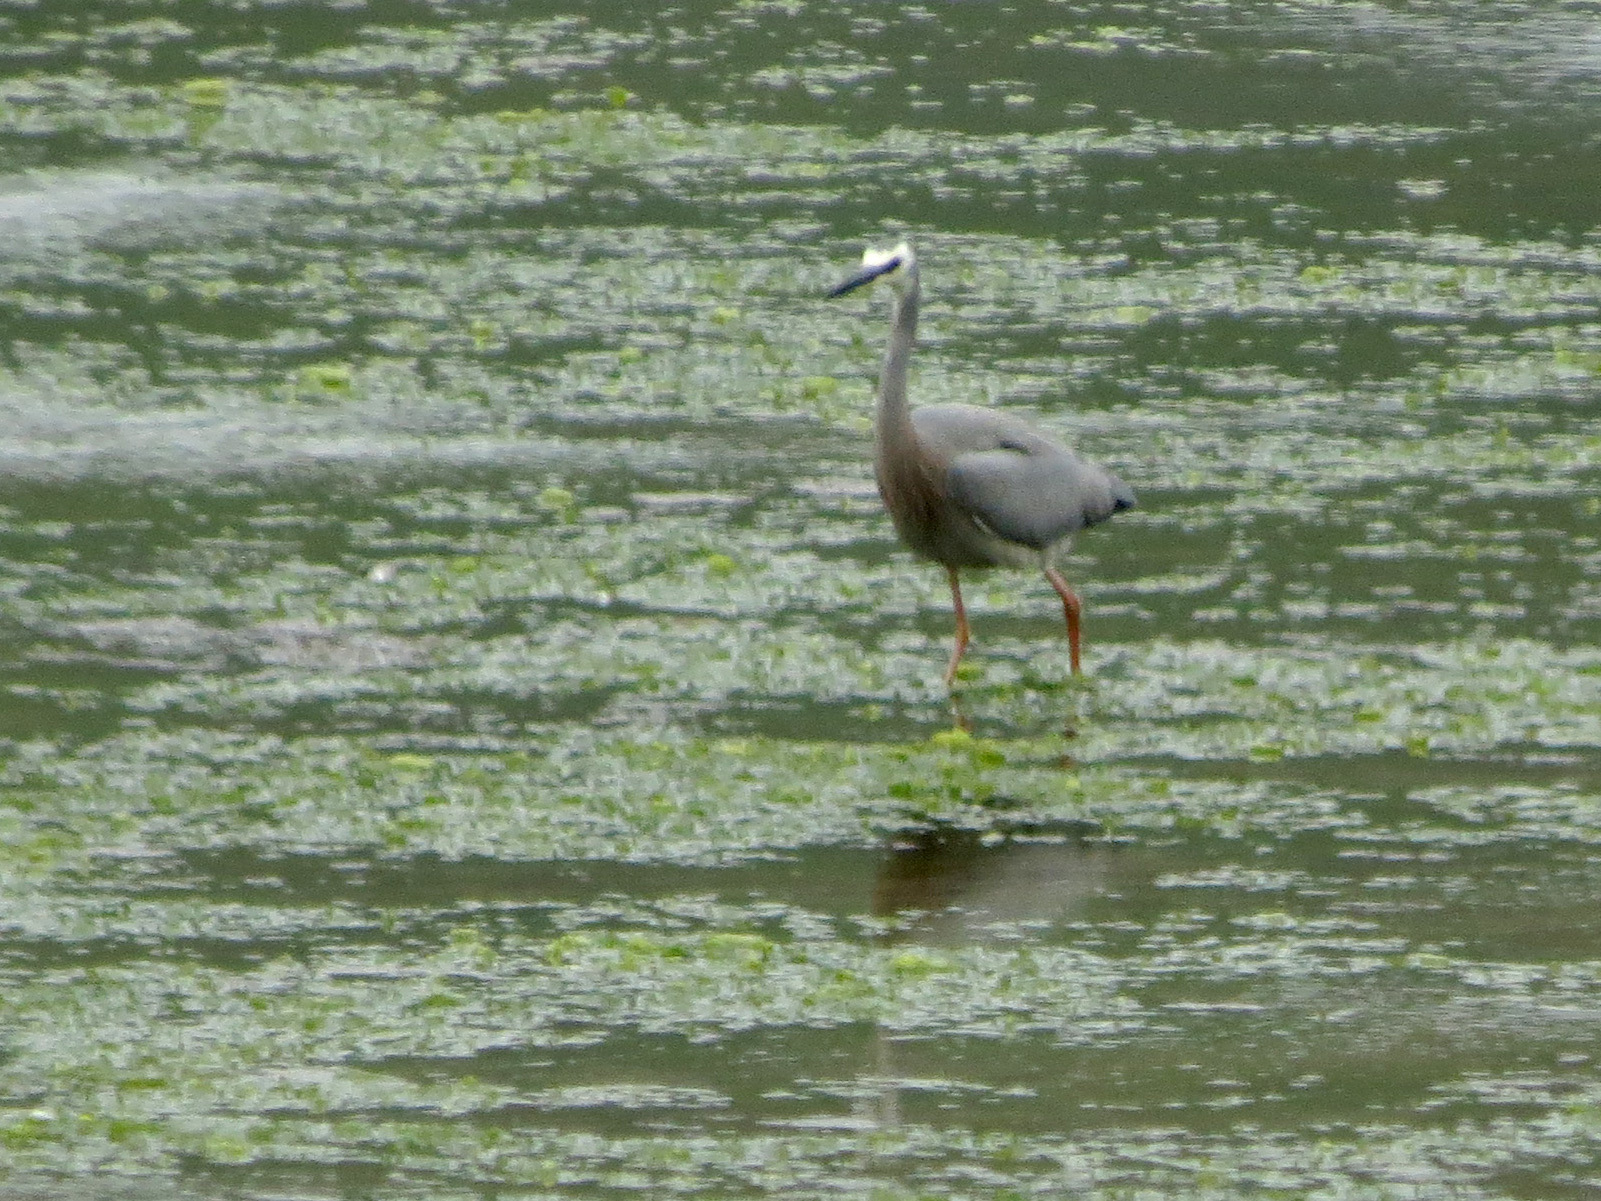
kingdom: Animalia
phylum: Chordata
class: Aves
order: Pelecaniformes
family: Ardeidae
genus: Egretta
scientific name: Egretta novaehollandiae
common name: White-faced heron
